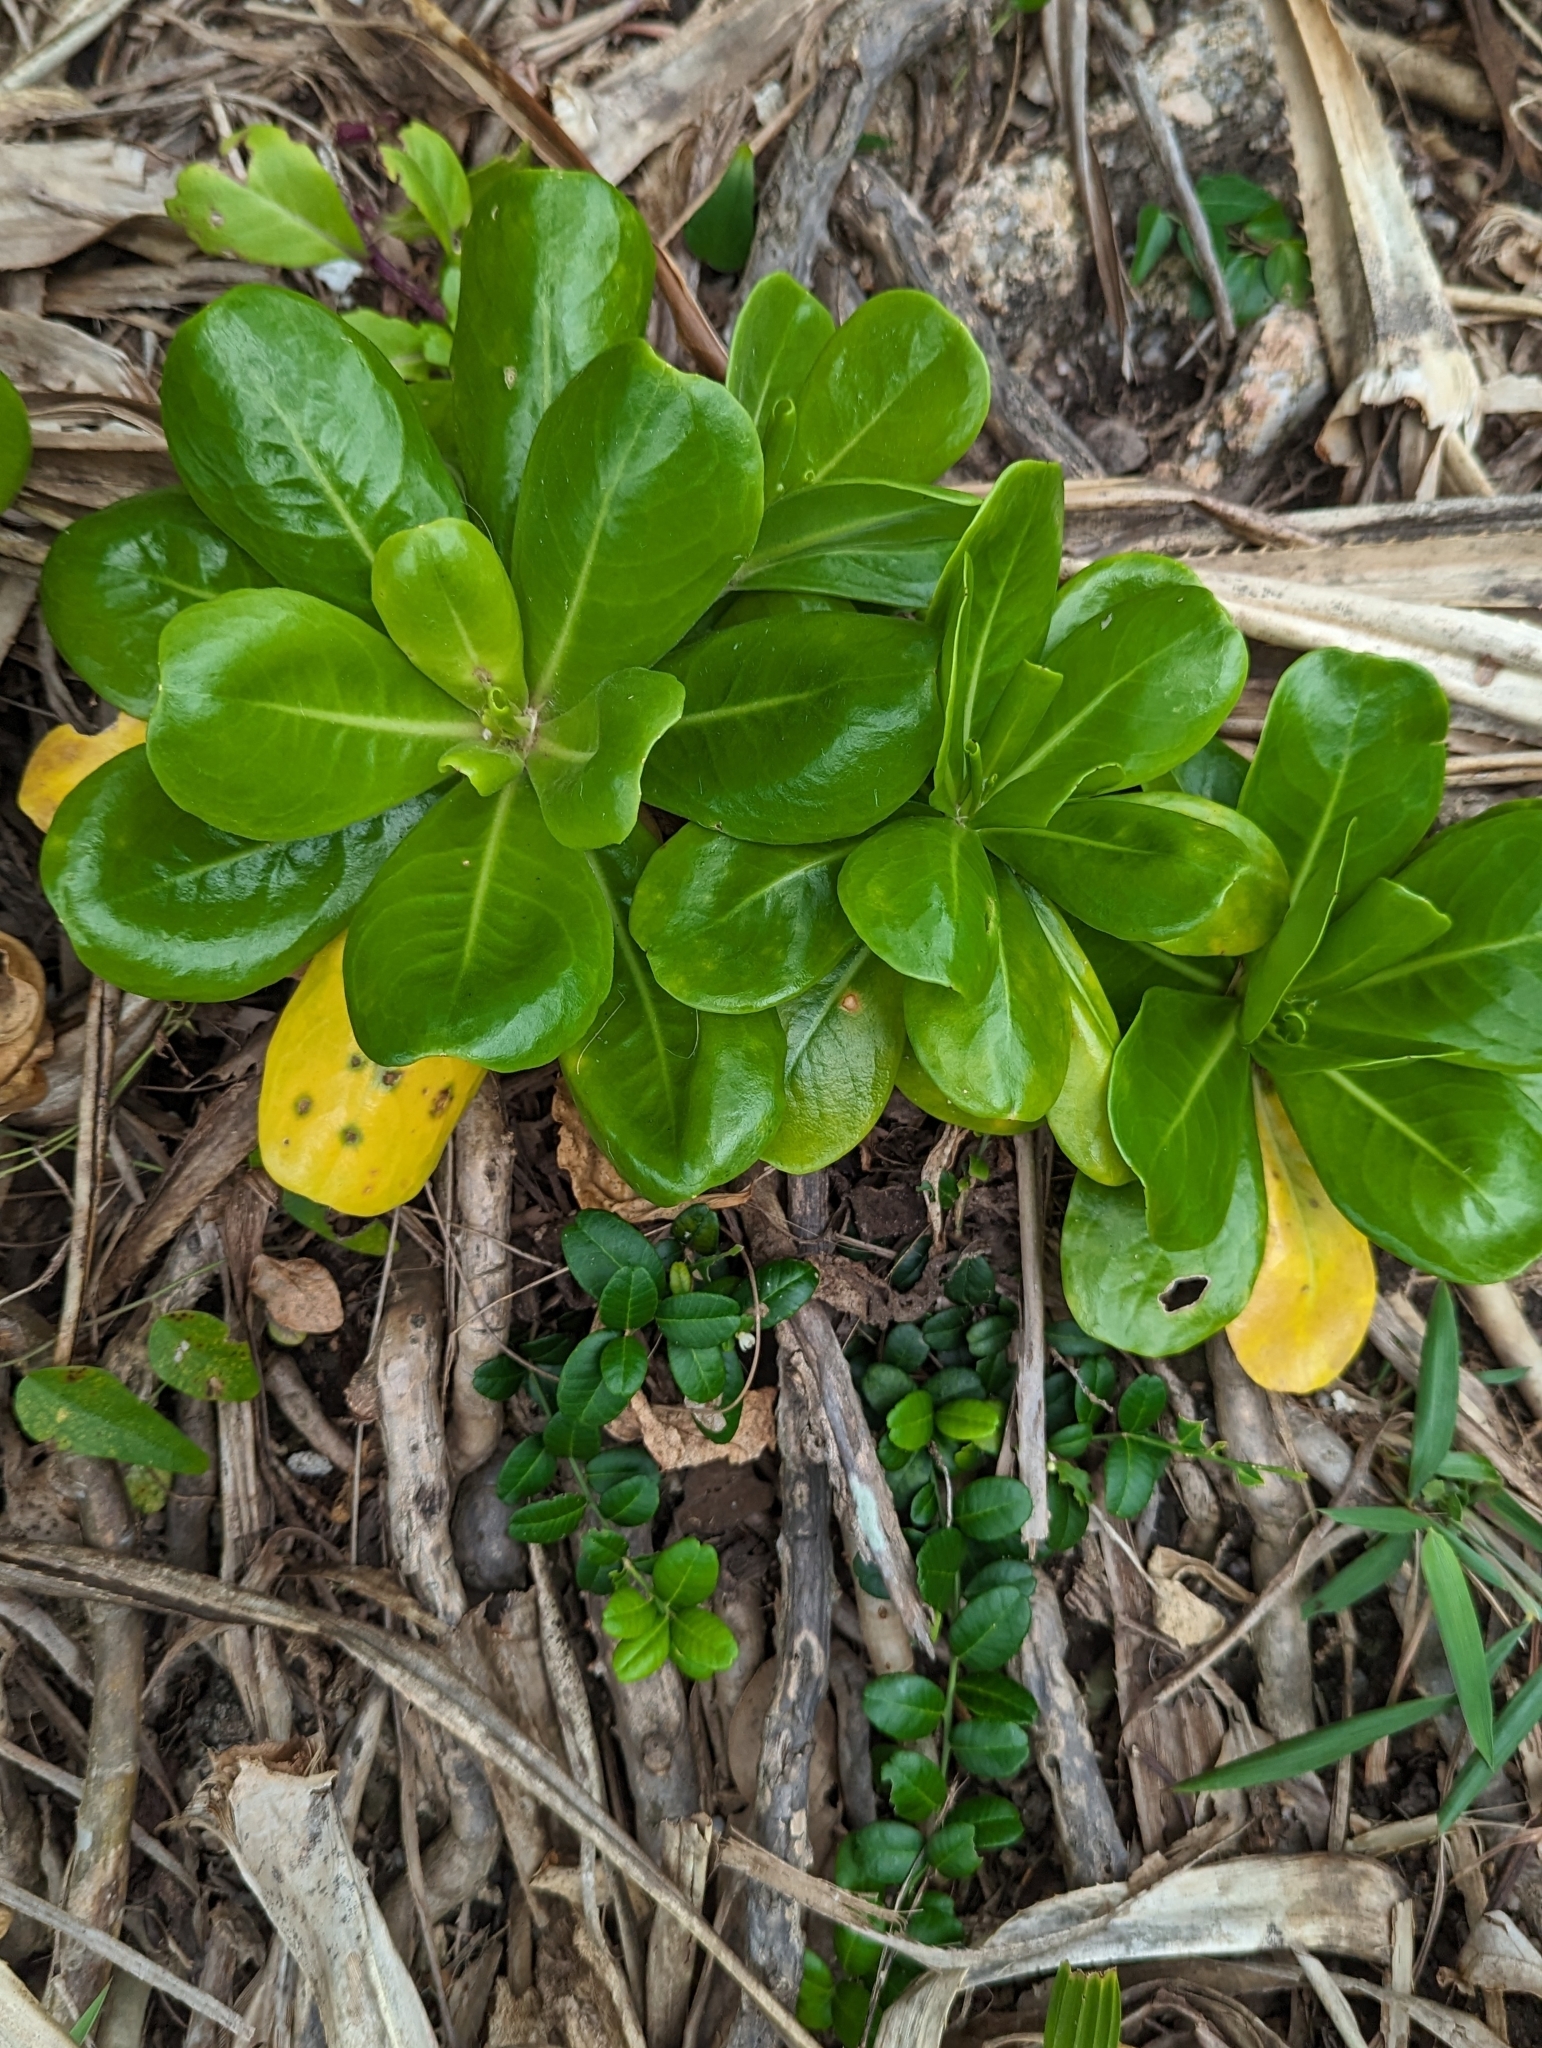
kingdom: Plantae
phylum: Tracheophyta
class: Magnoliopsida
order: Asterales
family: Goodeniaceae
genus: Scaevola
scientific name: Scaevola taccada
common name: Sea lettucetree
